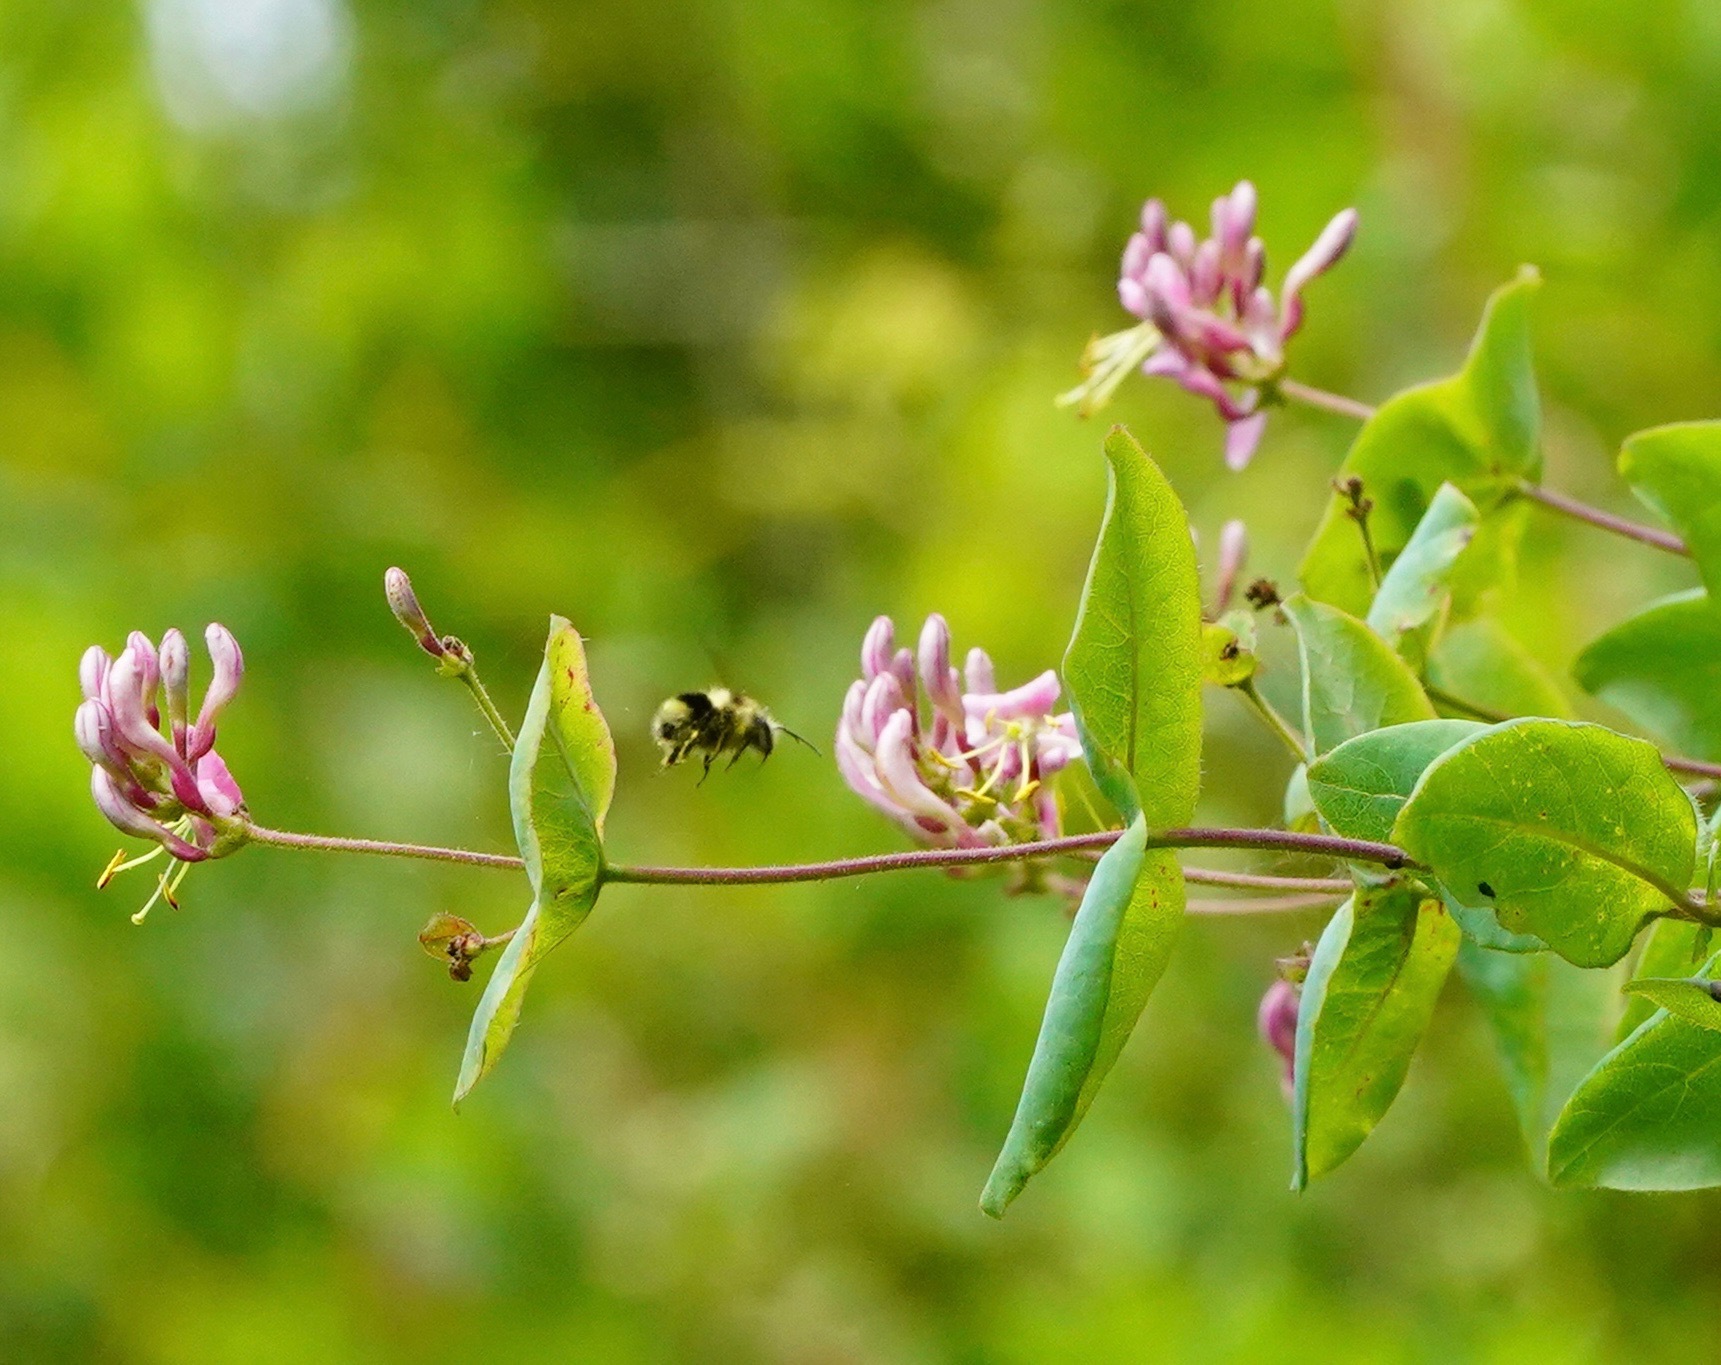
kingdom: Animalia
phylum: Arthropoda
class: Insecta
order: Hymenoptera
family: Apidae
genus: Bombus
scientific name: Bombus melanopygus
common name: Black tail bumble bee
